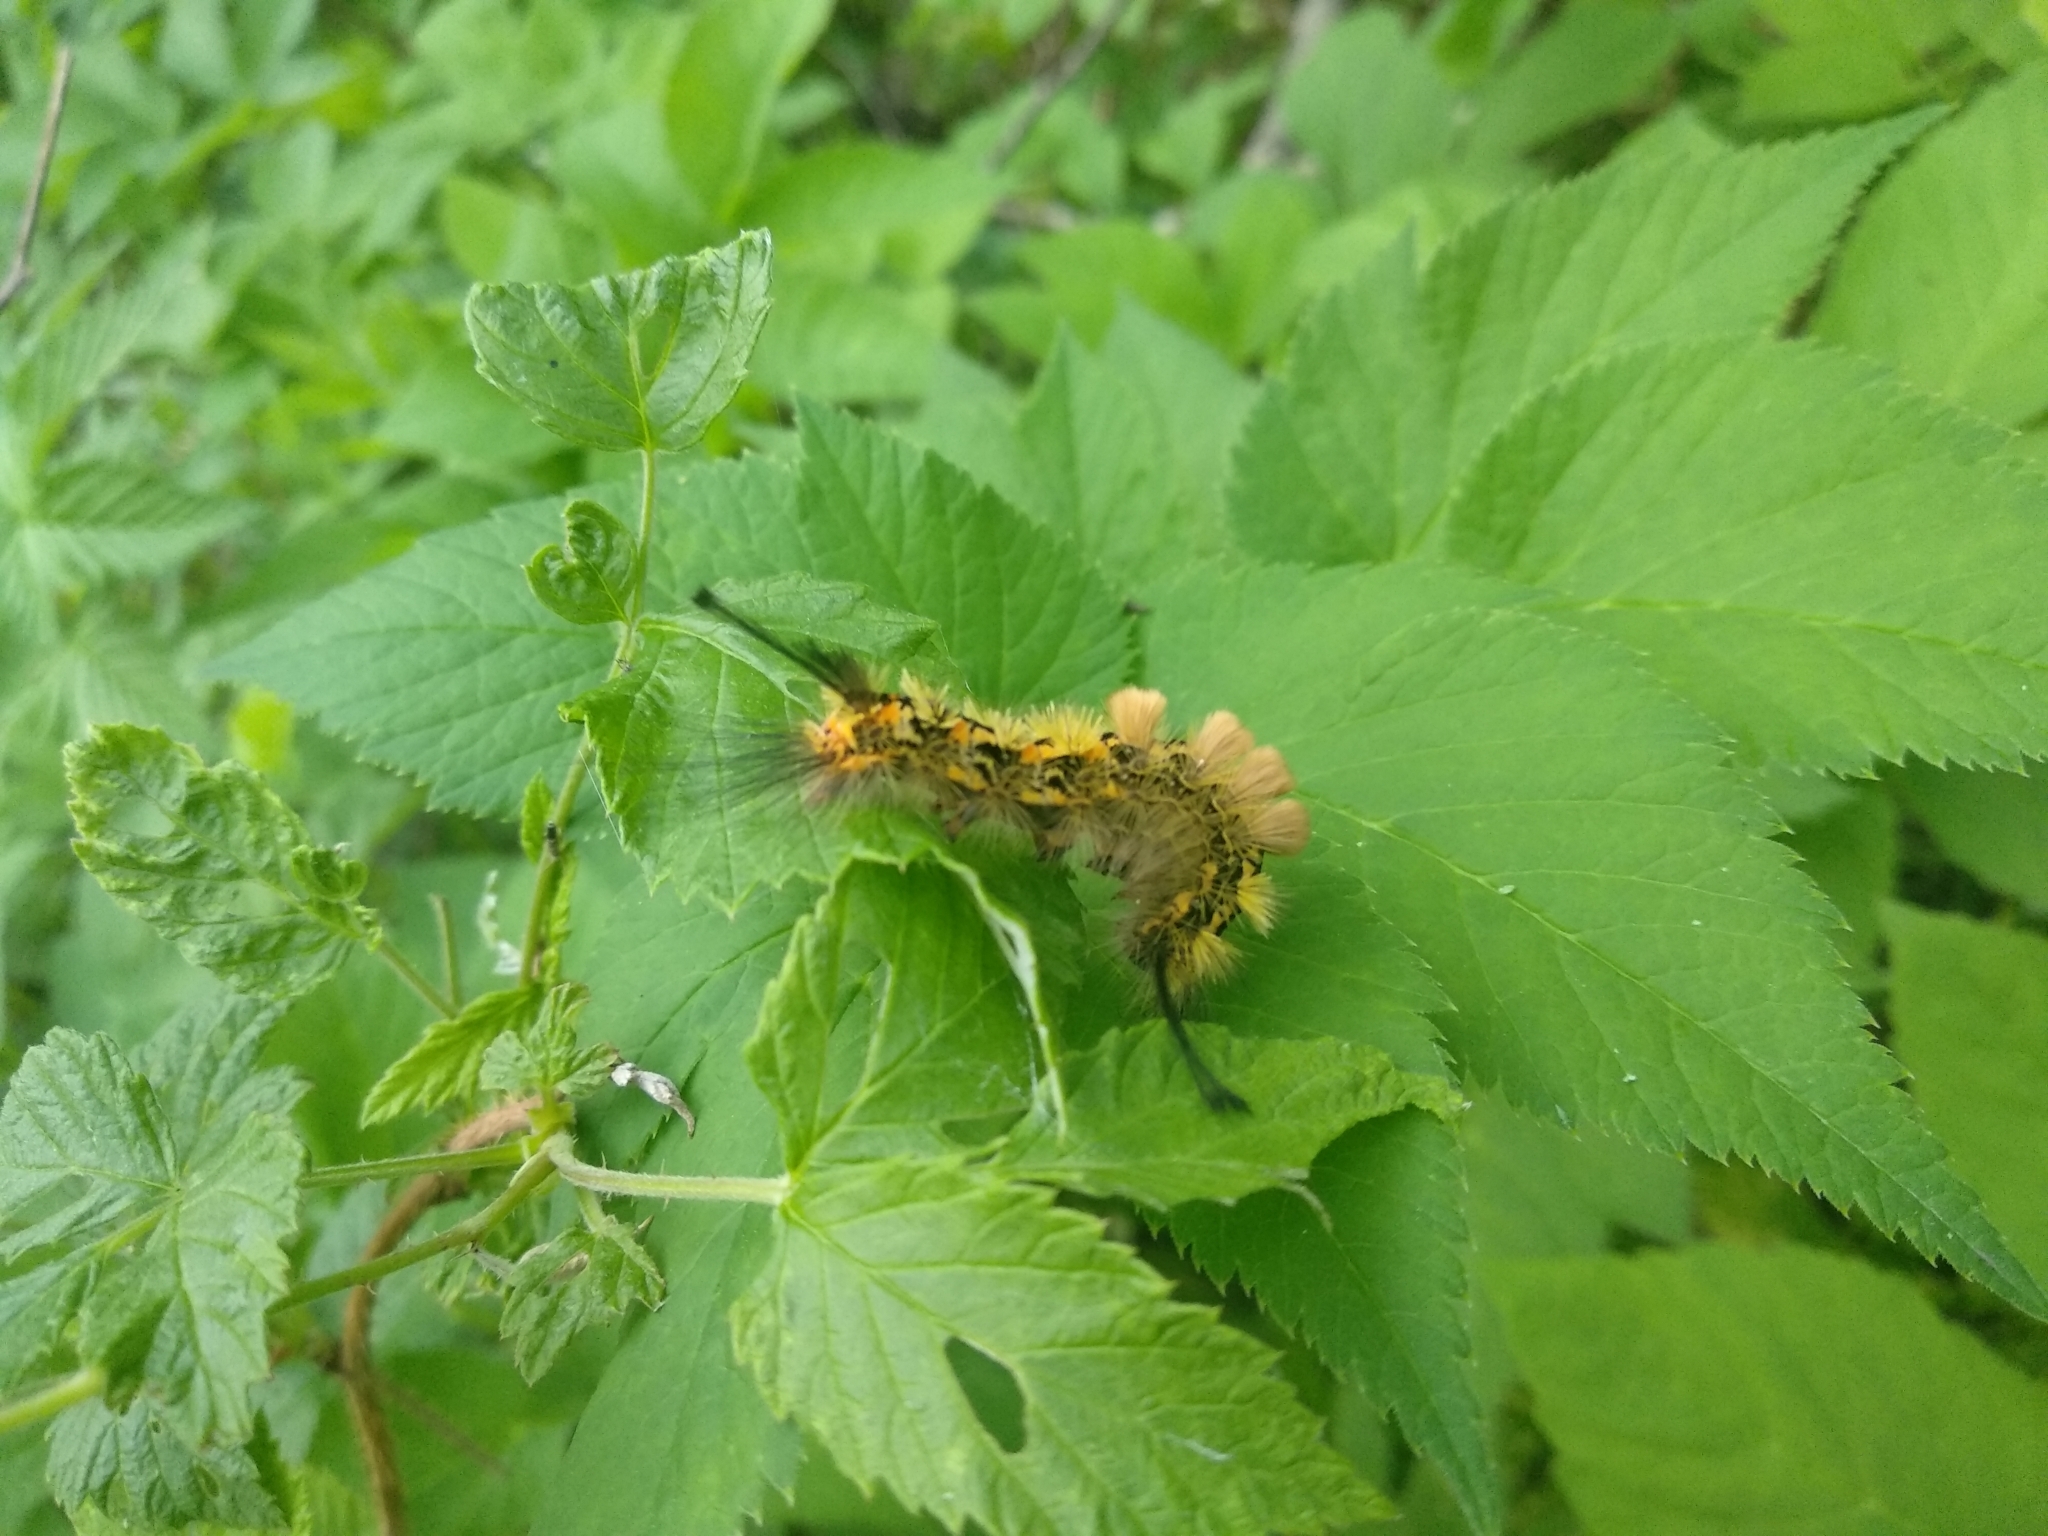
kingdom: Animalia
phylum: Arthropoda
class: Insecta
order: Lepidoptera
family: Erebidae
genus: Orgyia
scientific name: Orgyia recens
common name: Scarce vapourer
